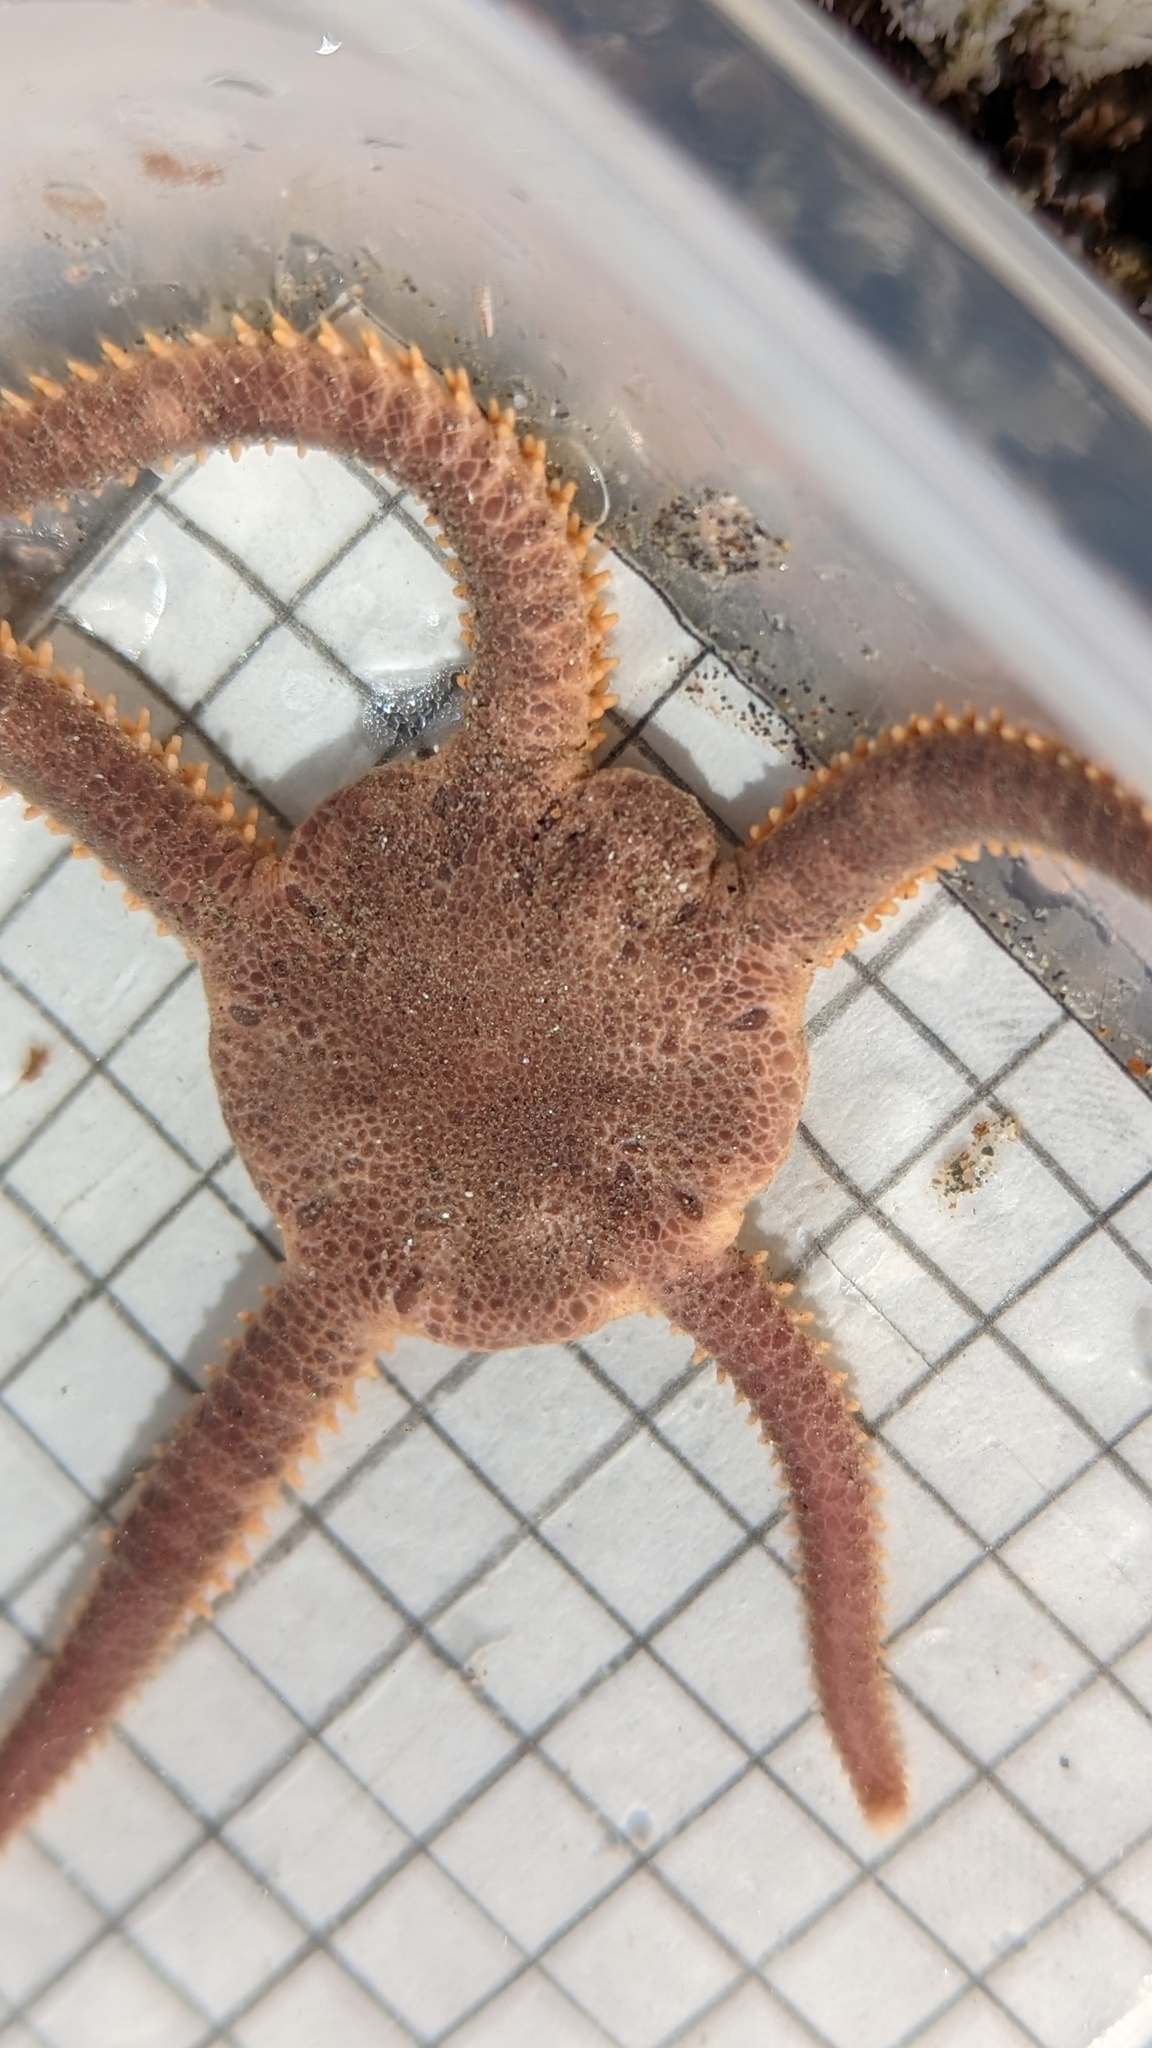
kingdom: Animalia
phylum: Echinodermata
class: Ophiuroidea
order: Amphilepidida
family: Hemieuryalidae
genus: Ophioplocus
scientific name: Ophioplocus esmarki
